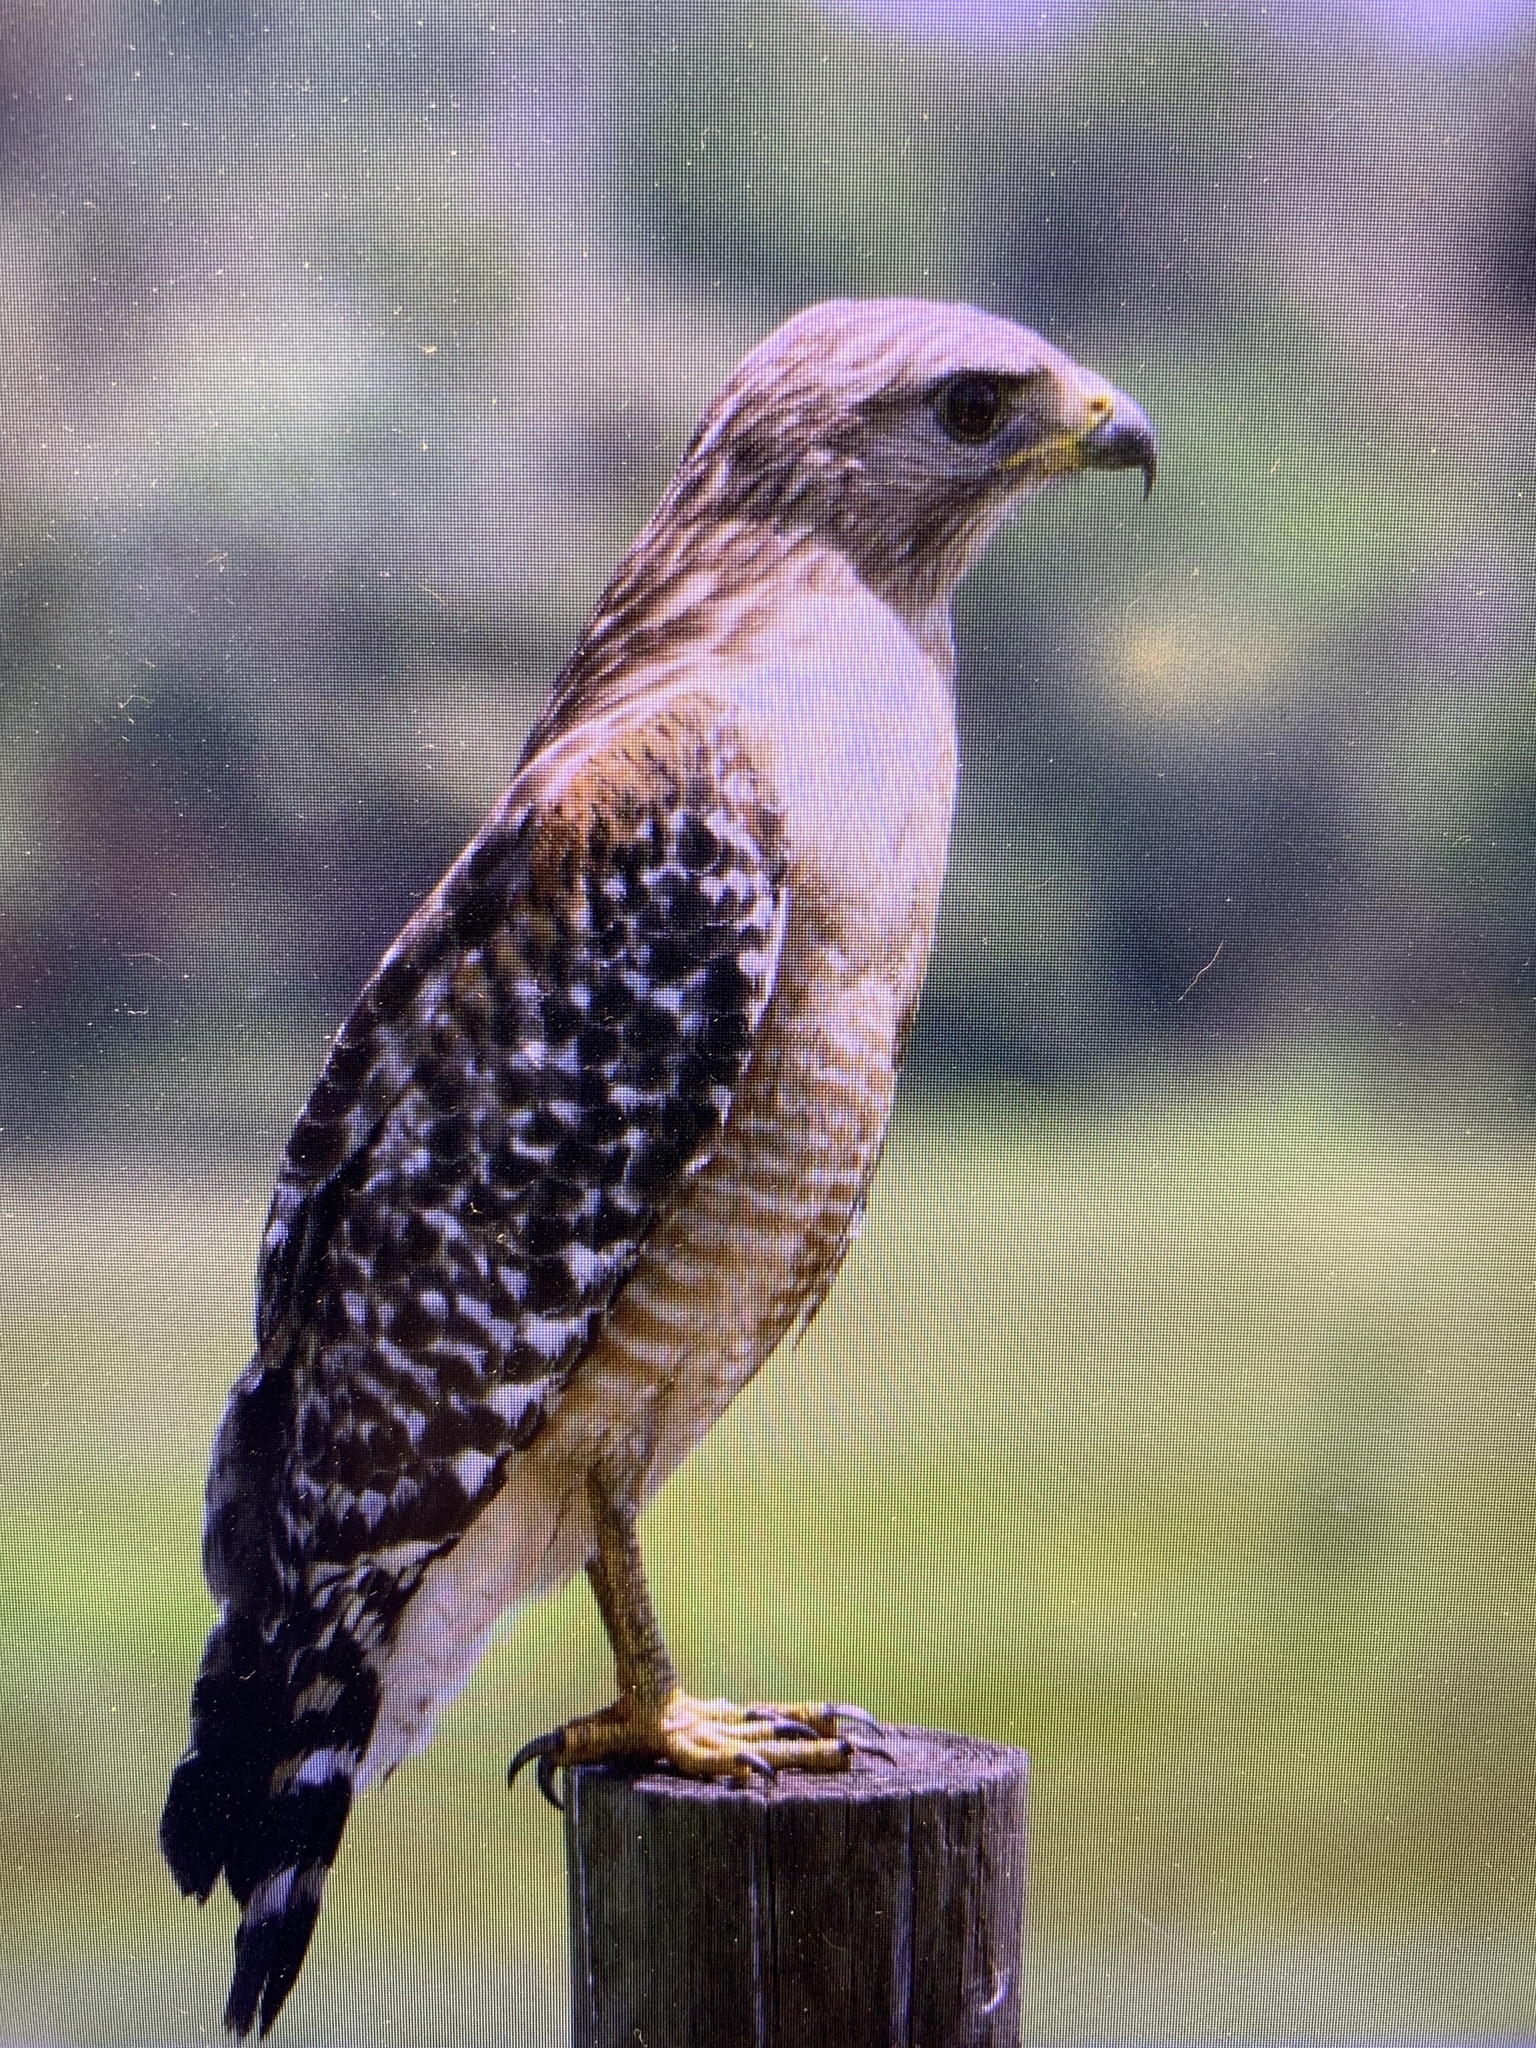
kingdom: Animalia
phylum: Chordata
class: Aves
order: Accipitriformes
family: Accipitridae
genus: Buteo
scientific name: Buteo lineatus
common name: Red-shouldered hawk
